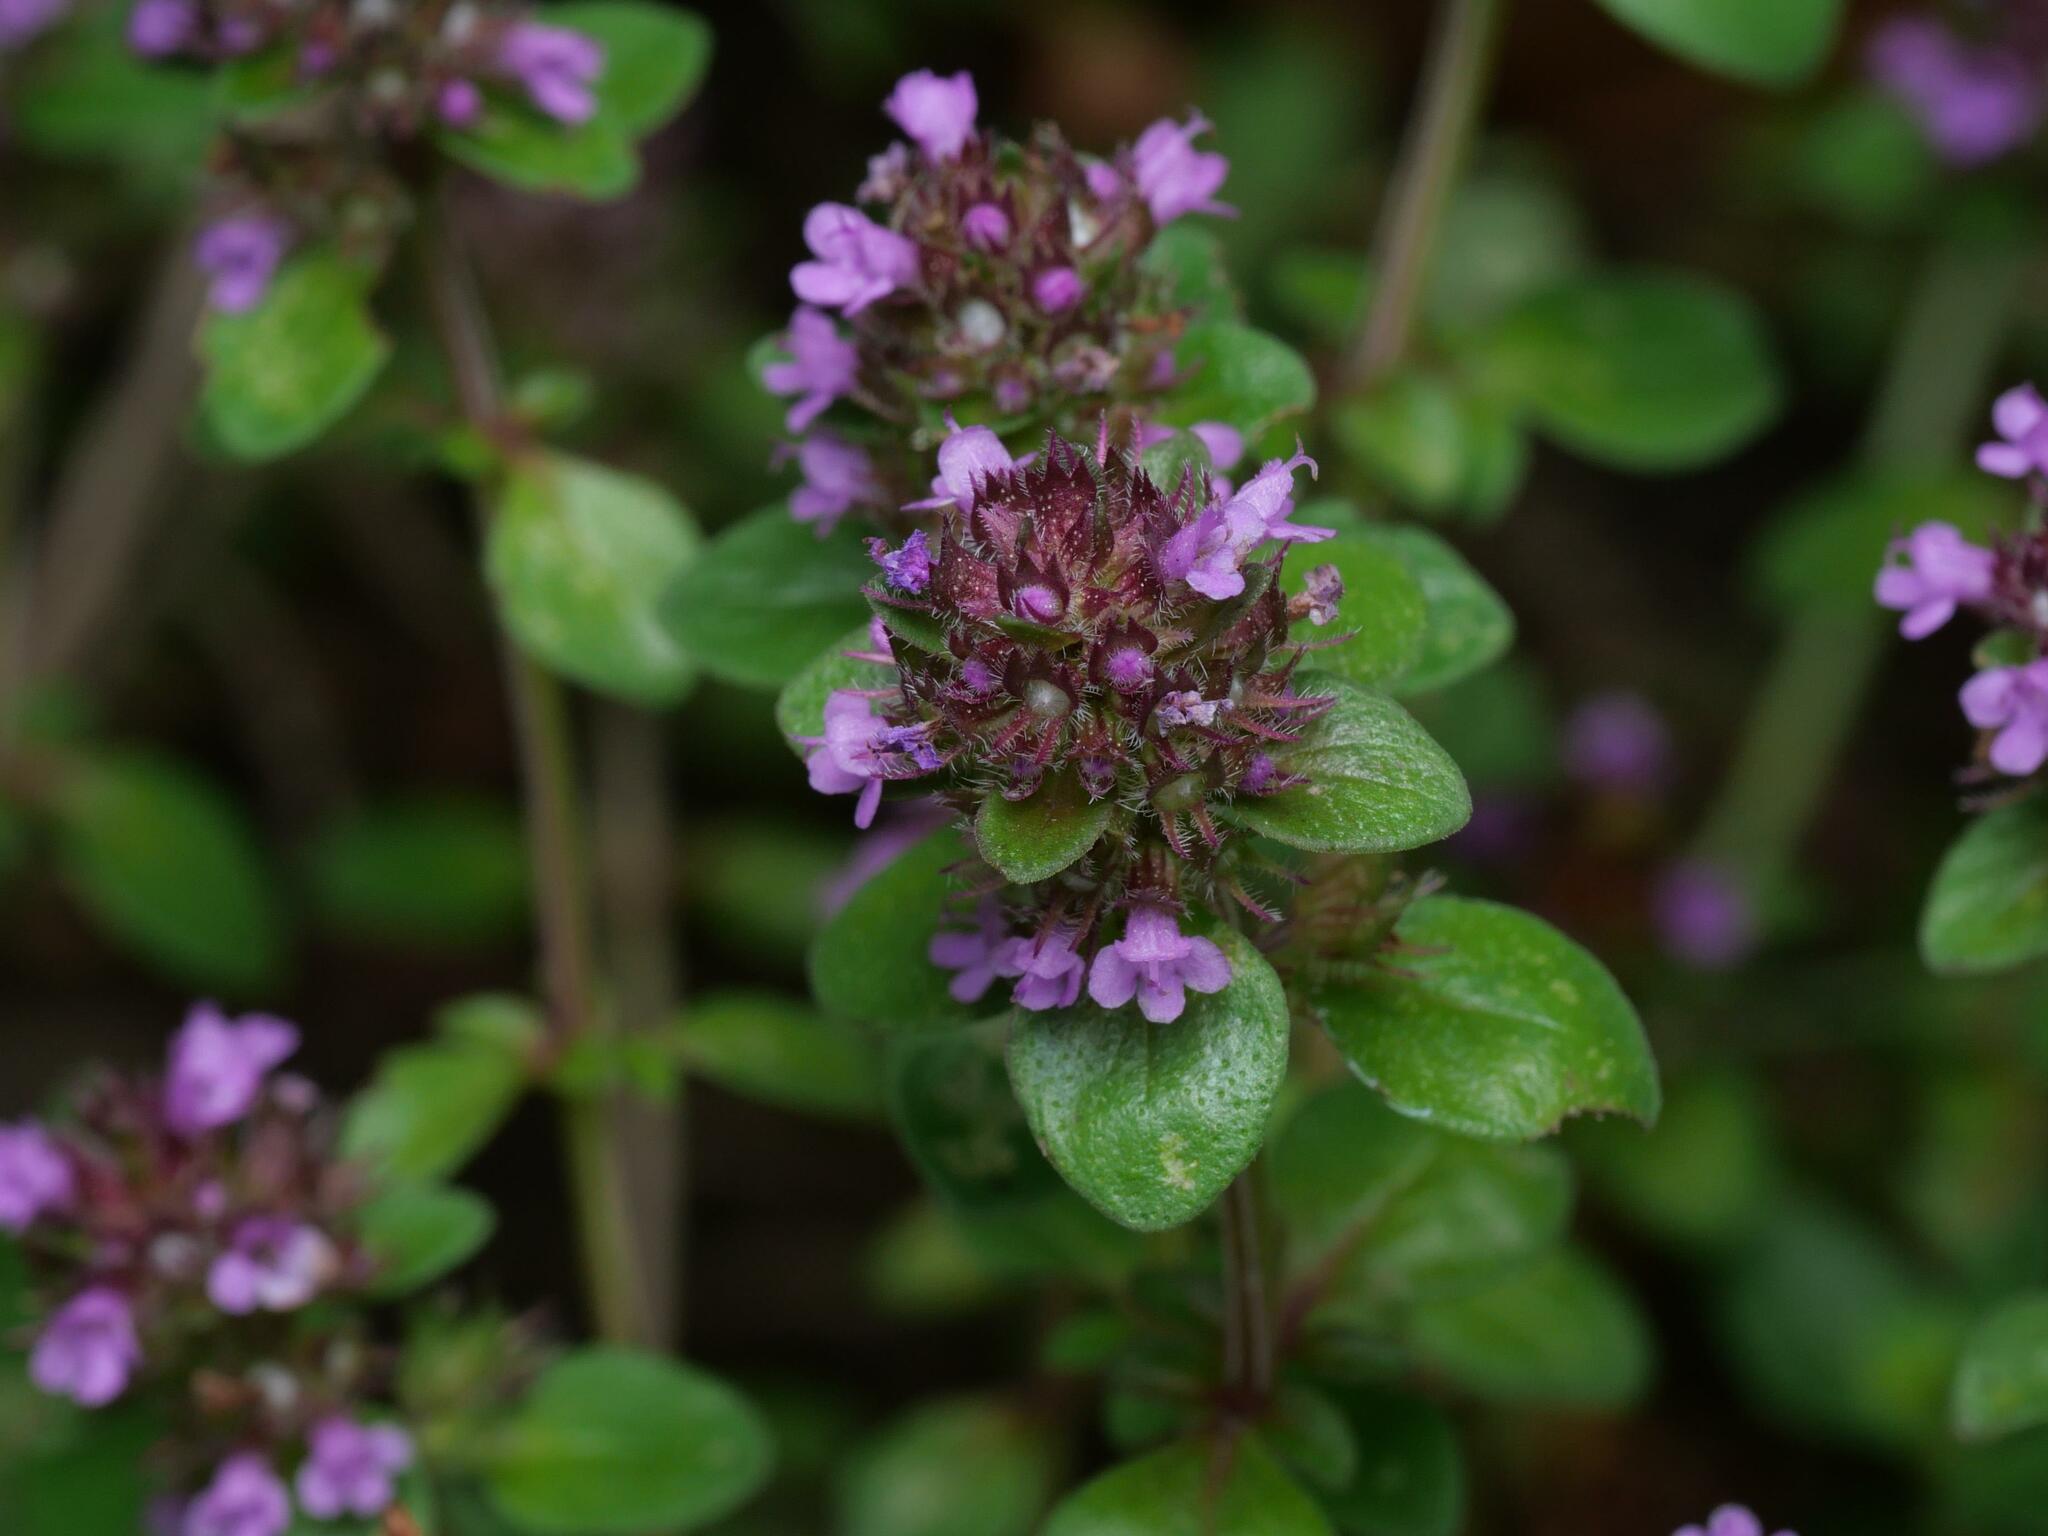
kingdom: Plantae
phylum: Tracheophyta
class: Magnoliopsida
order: Lamiales
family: Lamiaceae
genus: Thymus
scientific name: Thymus pulegioides
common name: Large thyme
